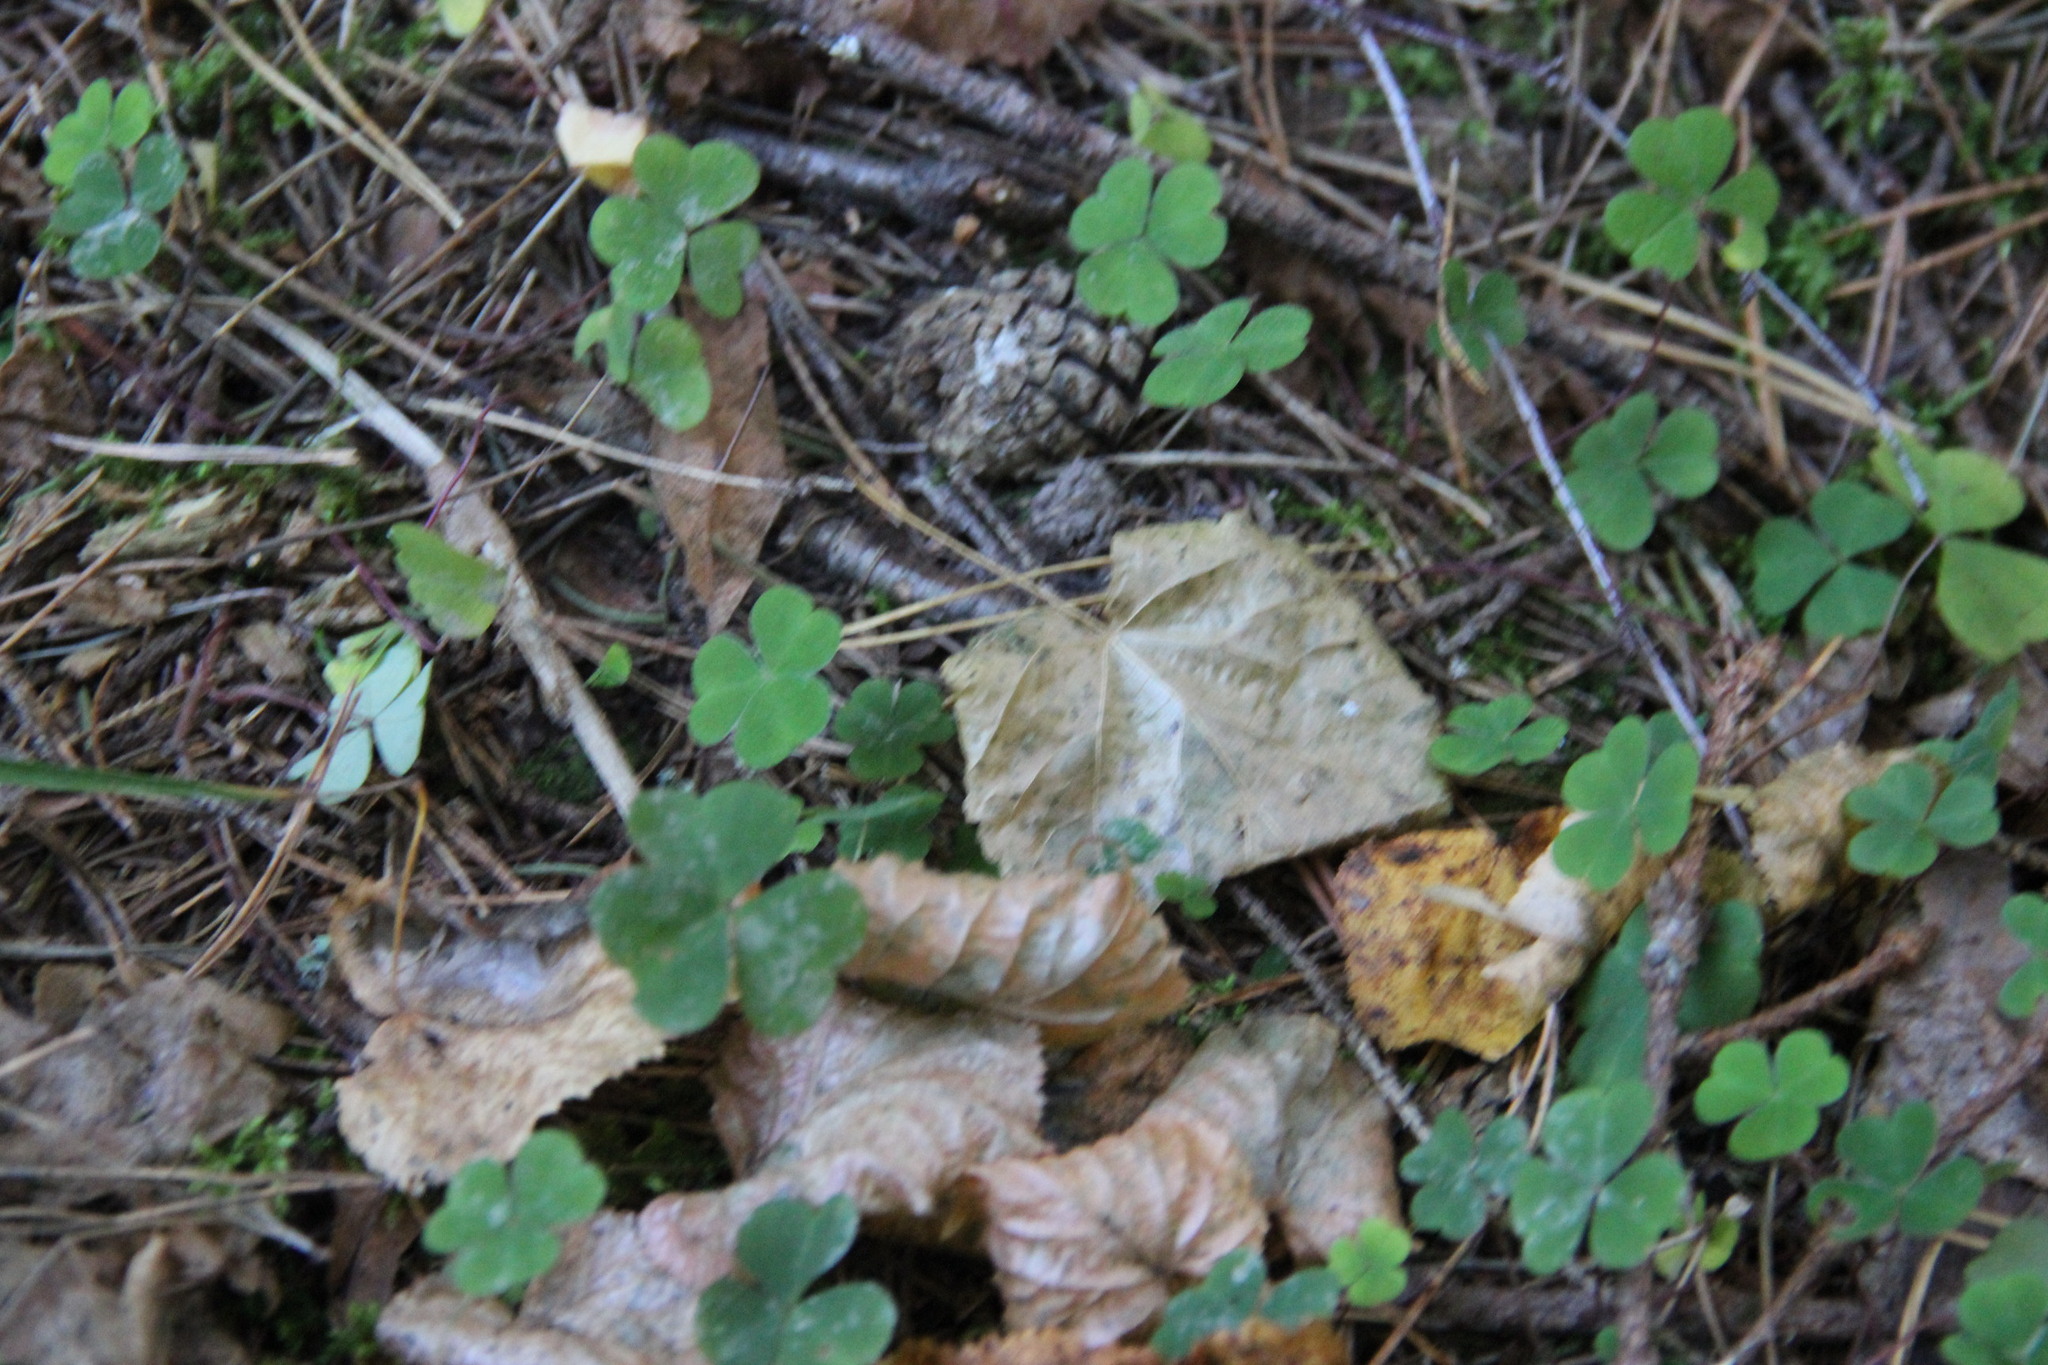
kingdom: Plantae
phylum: Tracheophyta
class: Magnoliopsida
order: Oxalidales
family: Oxalidaceae
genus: Oxalis
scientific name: Oxalis acetosella
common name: Wood-sorrel
